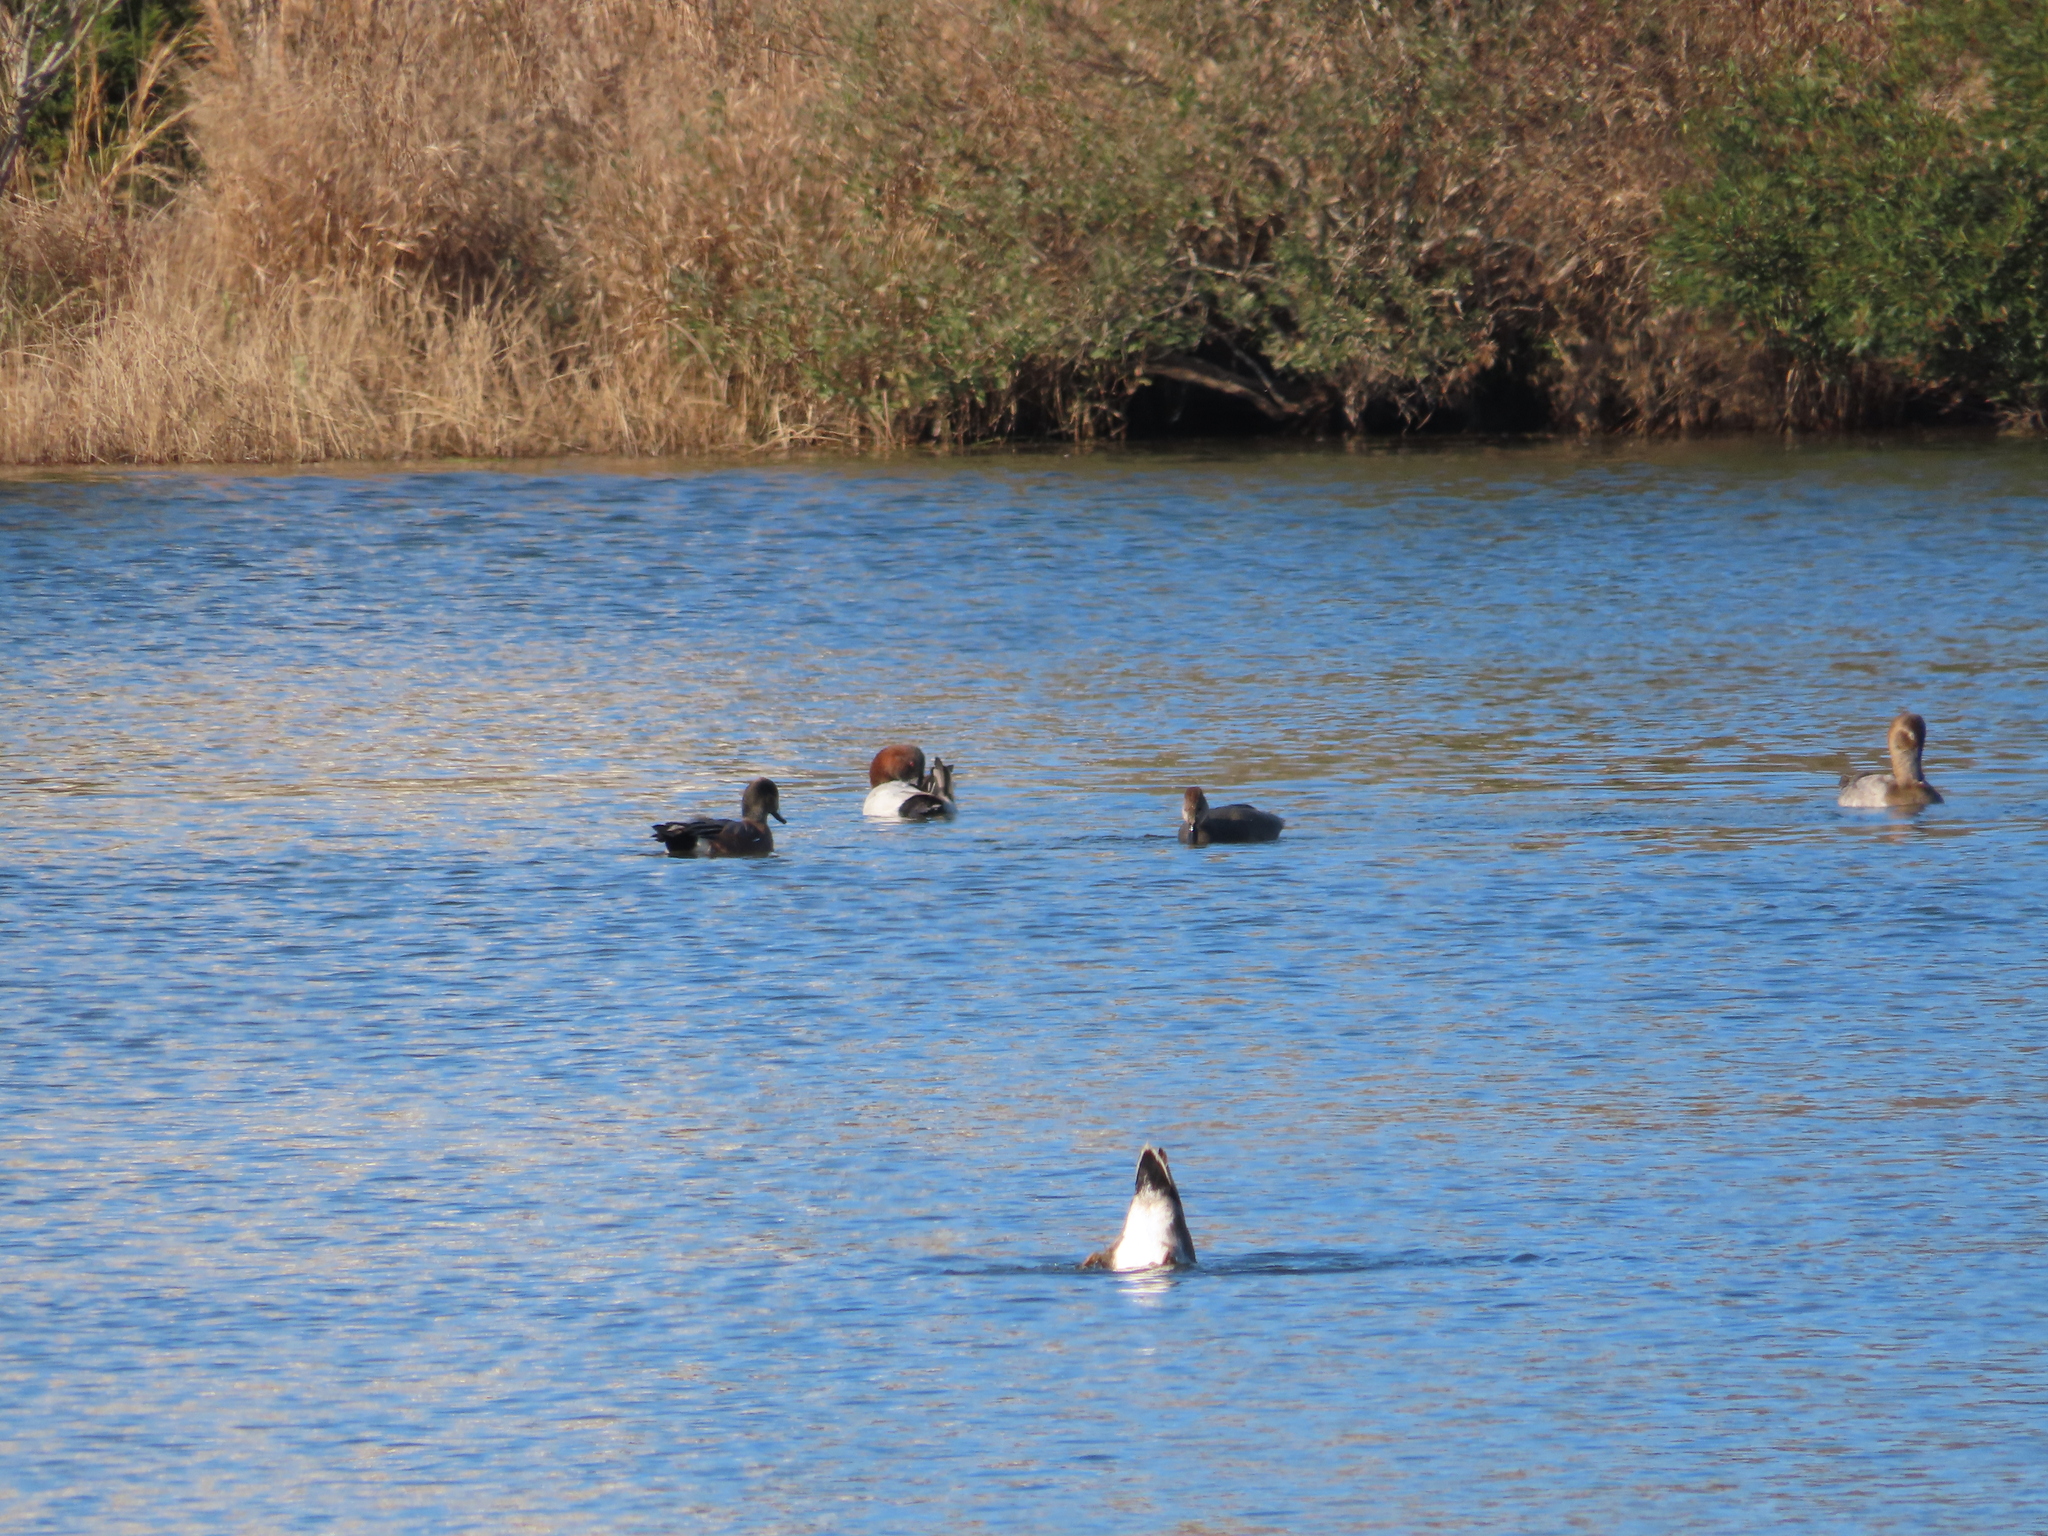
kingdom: Animalia
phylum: Chordata
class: Aves
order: Anseriformes
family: Anatidae
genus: Aythya
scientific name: Aythya valisineria
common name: Canvasback
